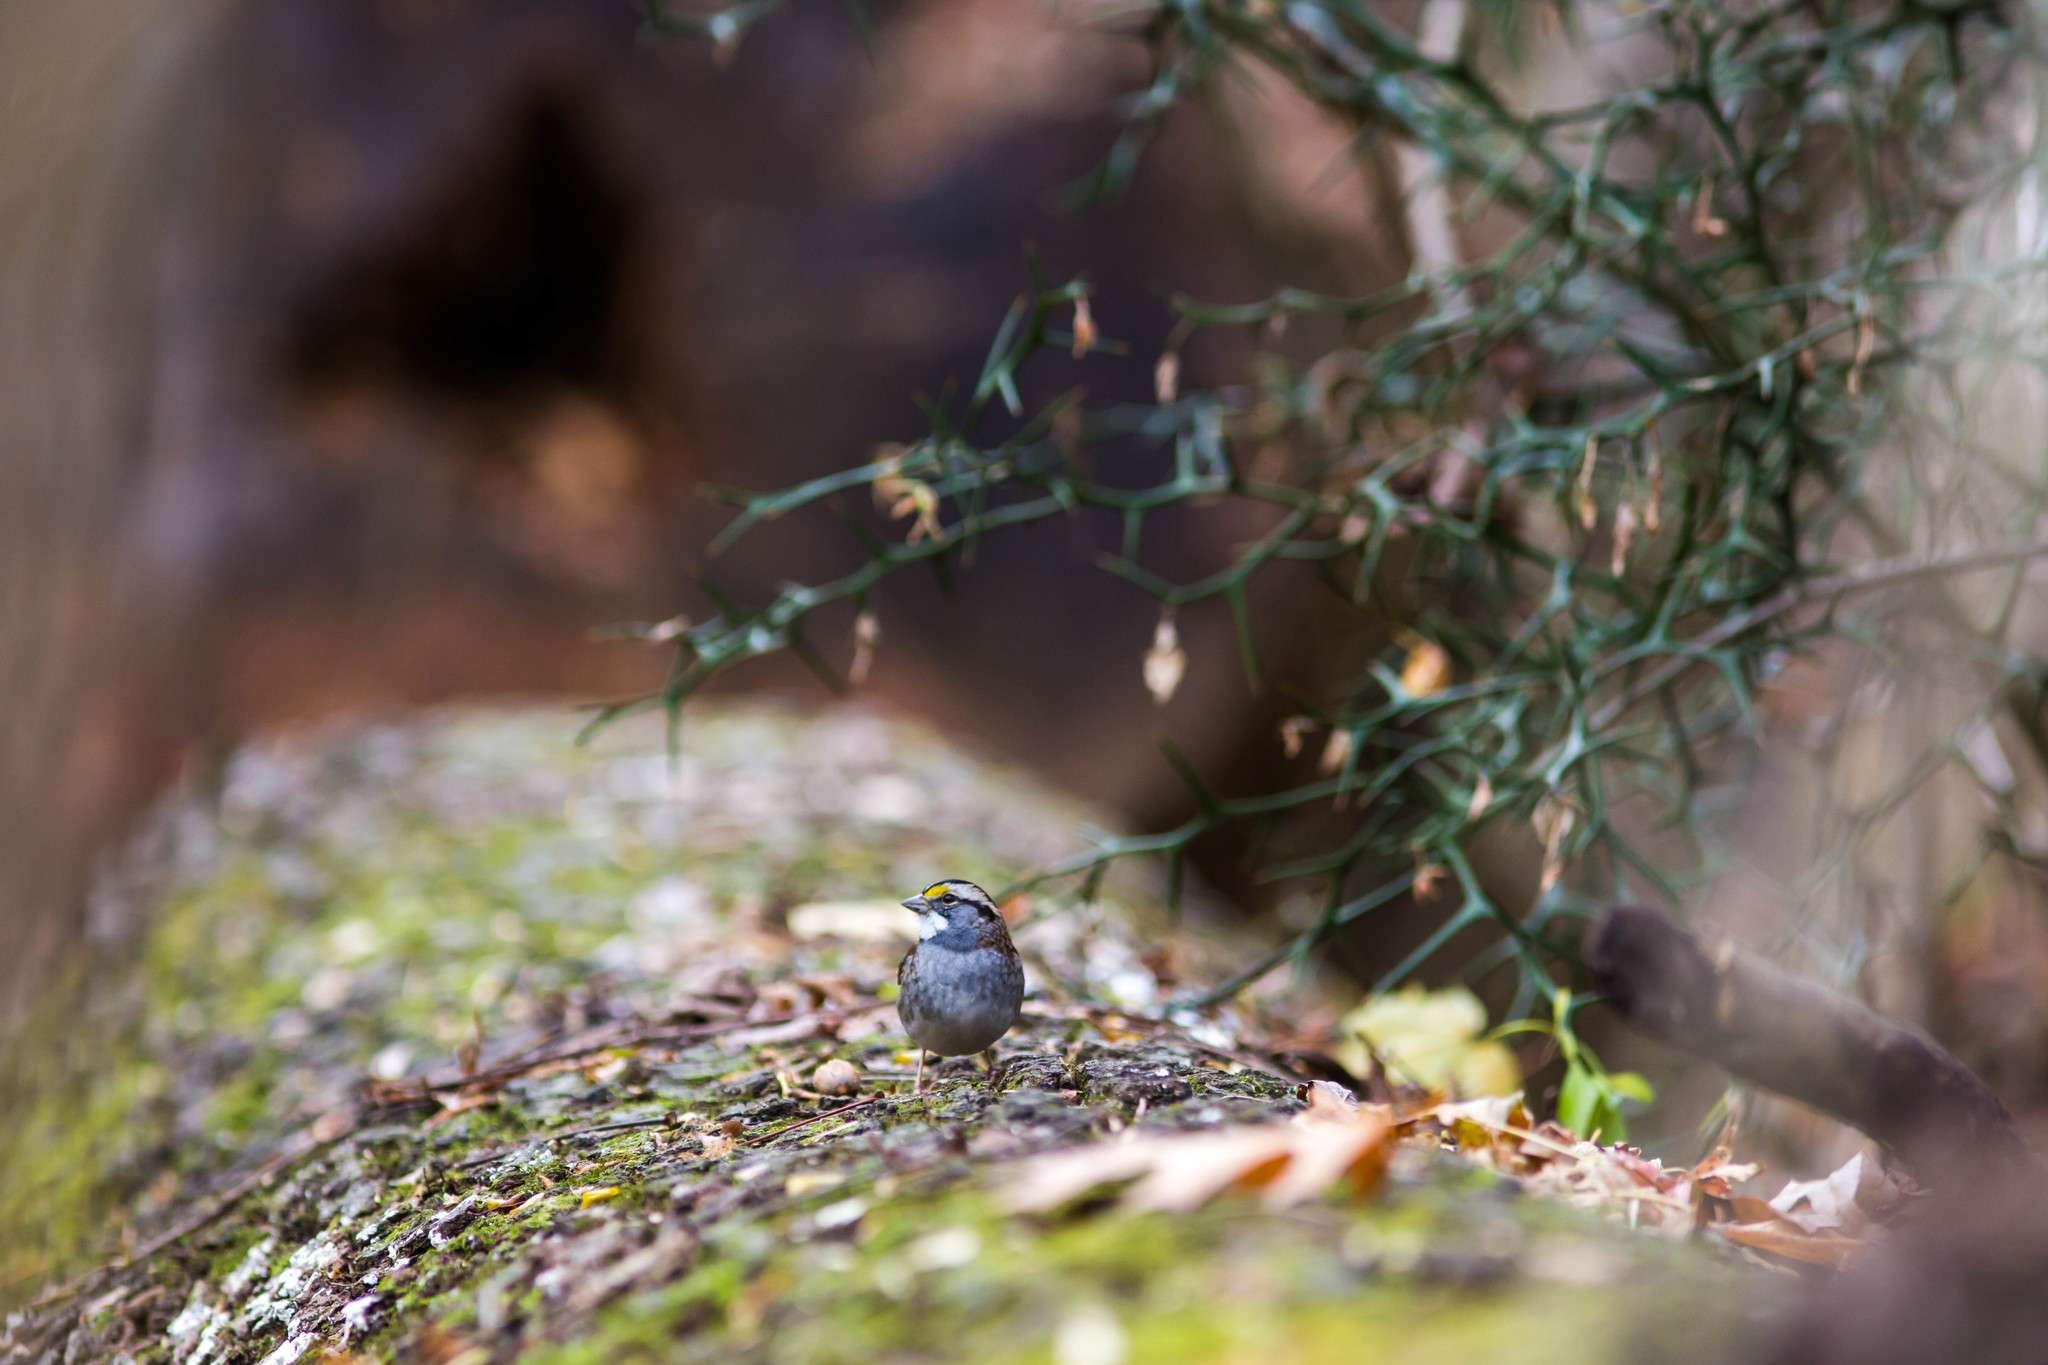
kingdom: Animalia
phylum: Chordata
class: Aves
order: Passeriformes
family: Passerellidae
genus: Zonotrichia
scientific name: Zonotrichia albicollis
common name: White-throated sparrow
